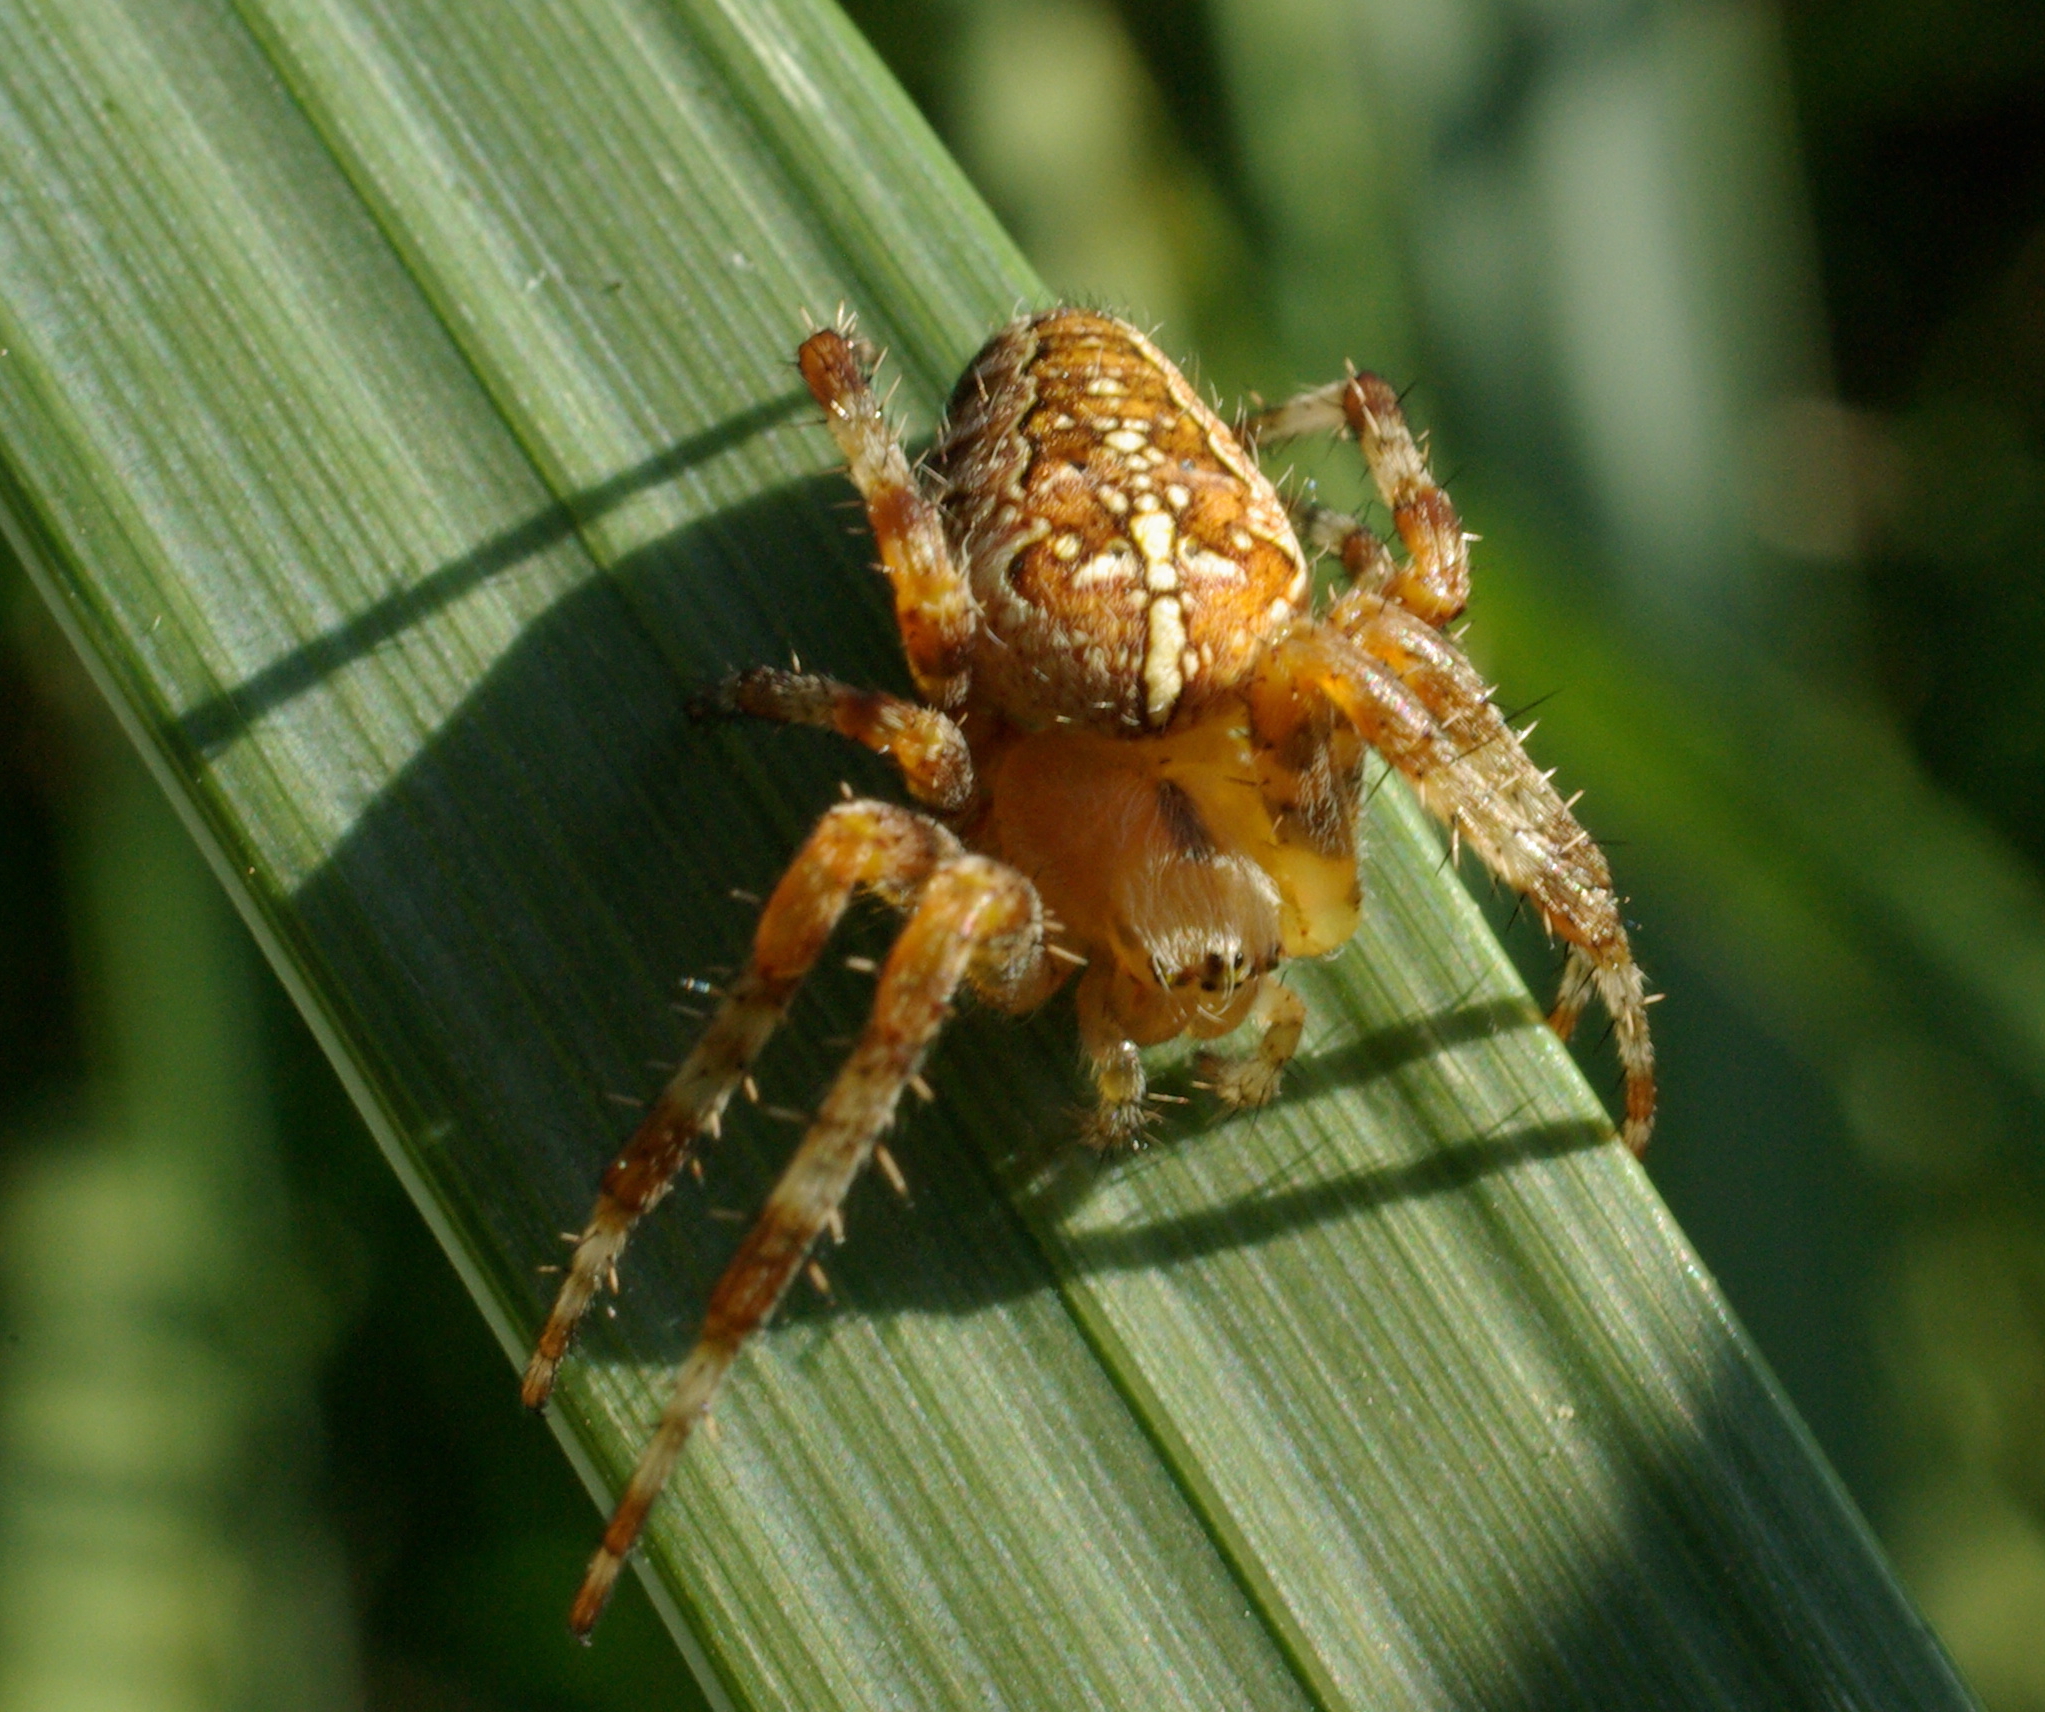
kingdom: Animalia
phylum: Arthropoda
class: Arachnida
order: Araneae
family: Araneidae
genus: Araneus
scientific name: Araneus diadematus
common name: Cross orbweaver
